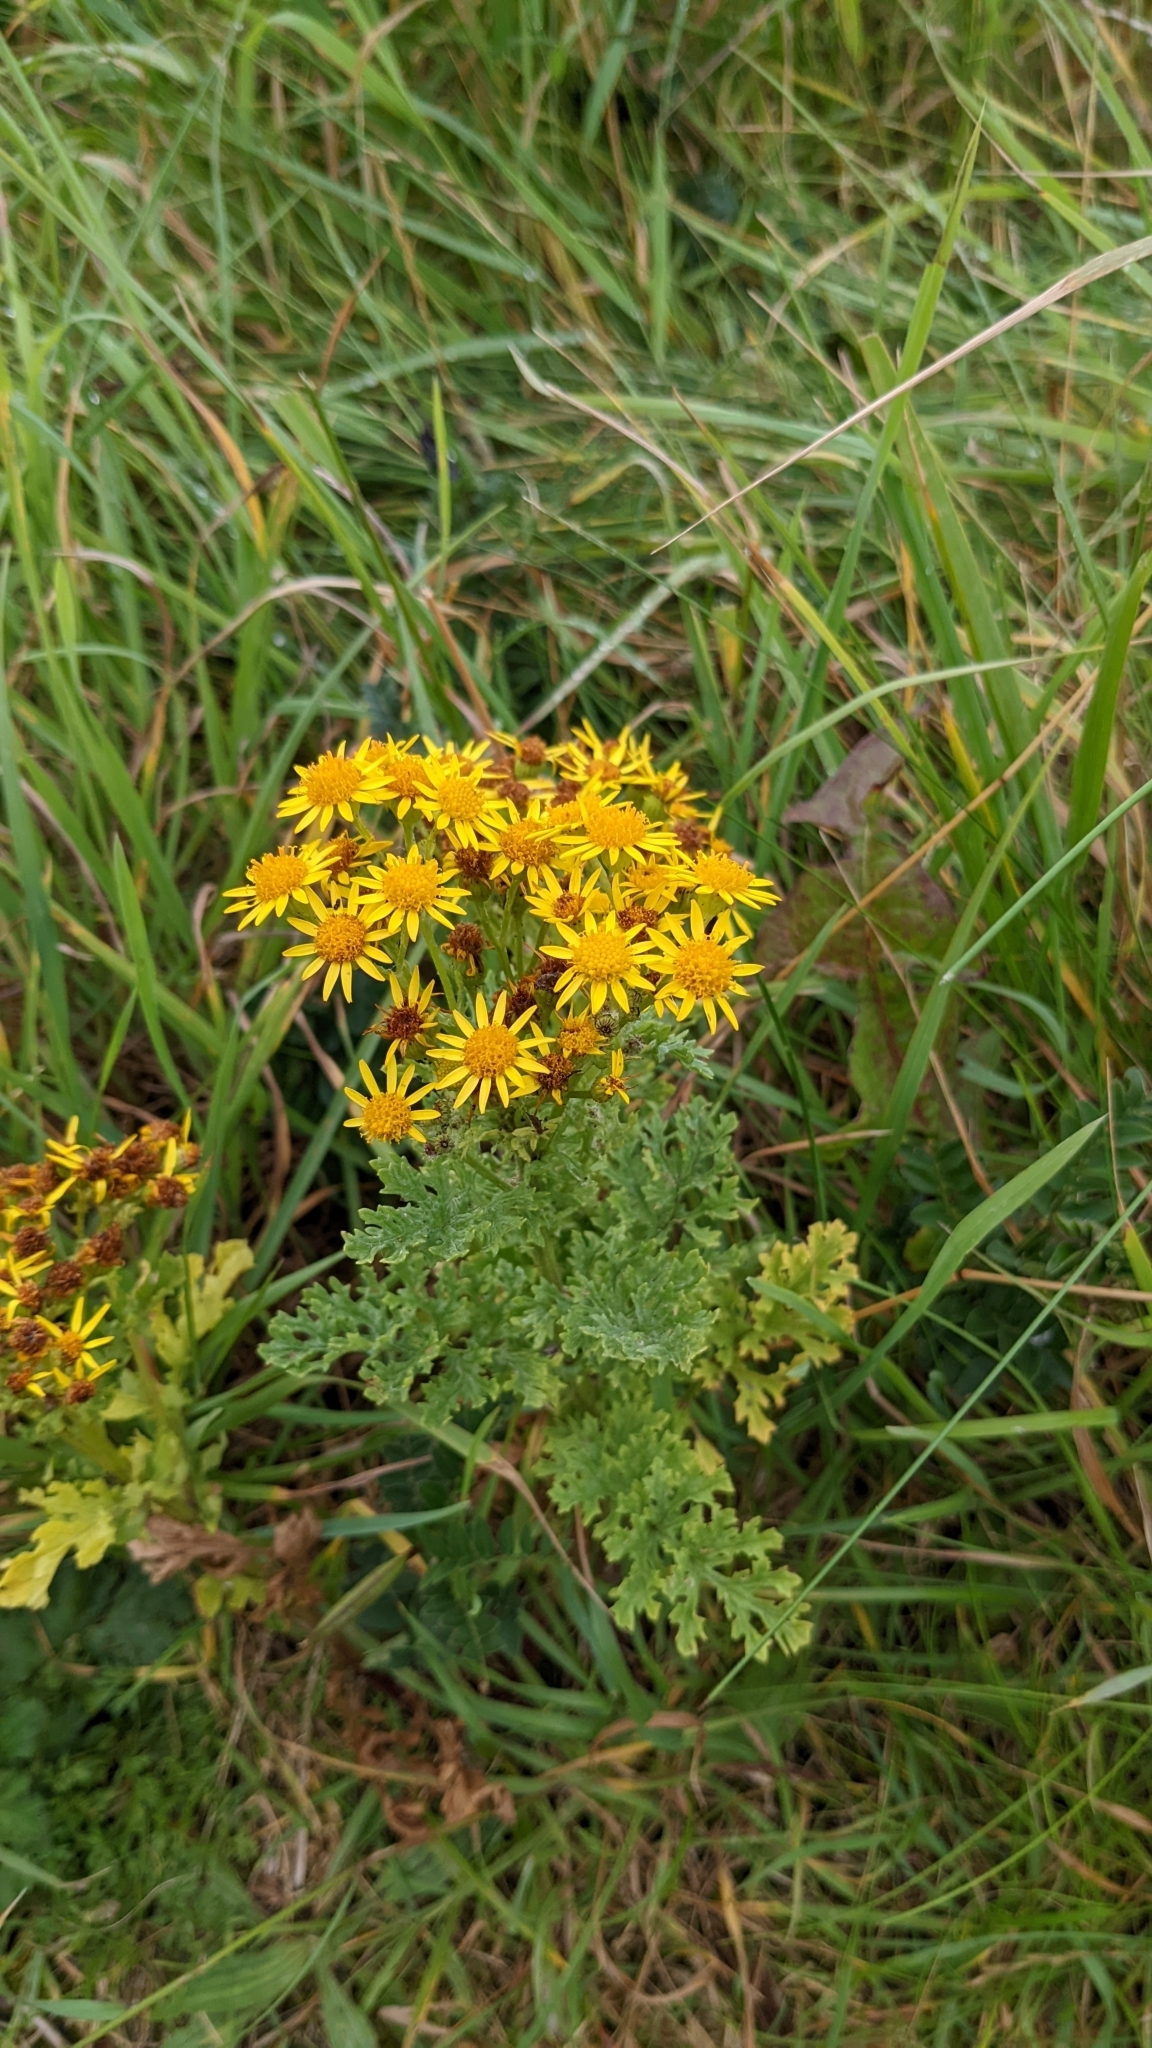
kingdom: Plantae
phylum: Tracheophyta
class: Magnoliopsida
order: Asterales
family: Asteraceae
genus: Jacobaea
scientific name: Jacobaea vulgaris
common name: Stinking willie
